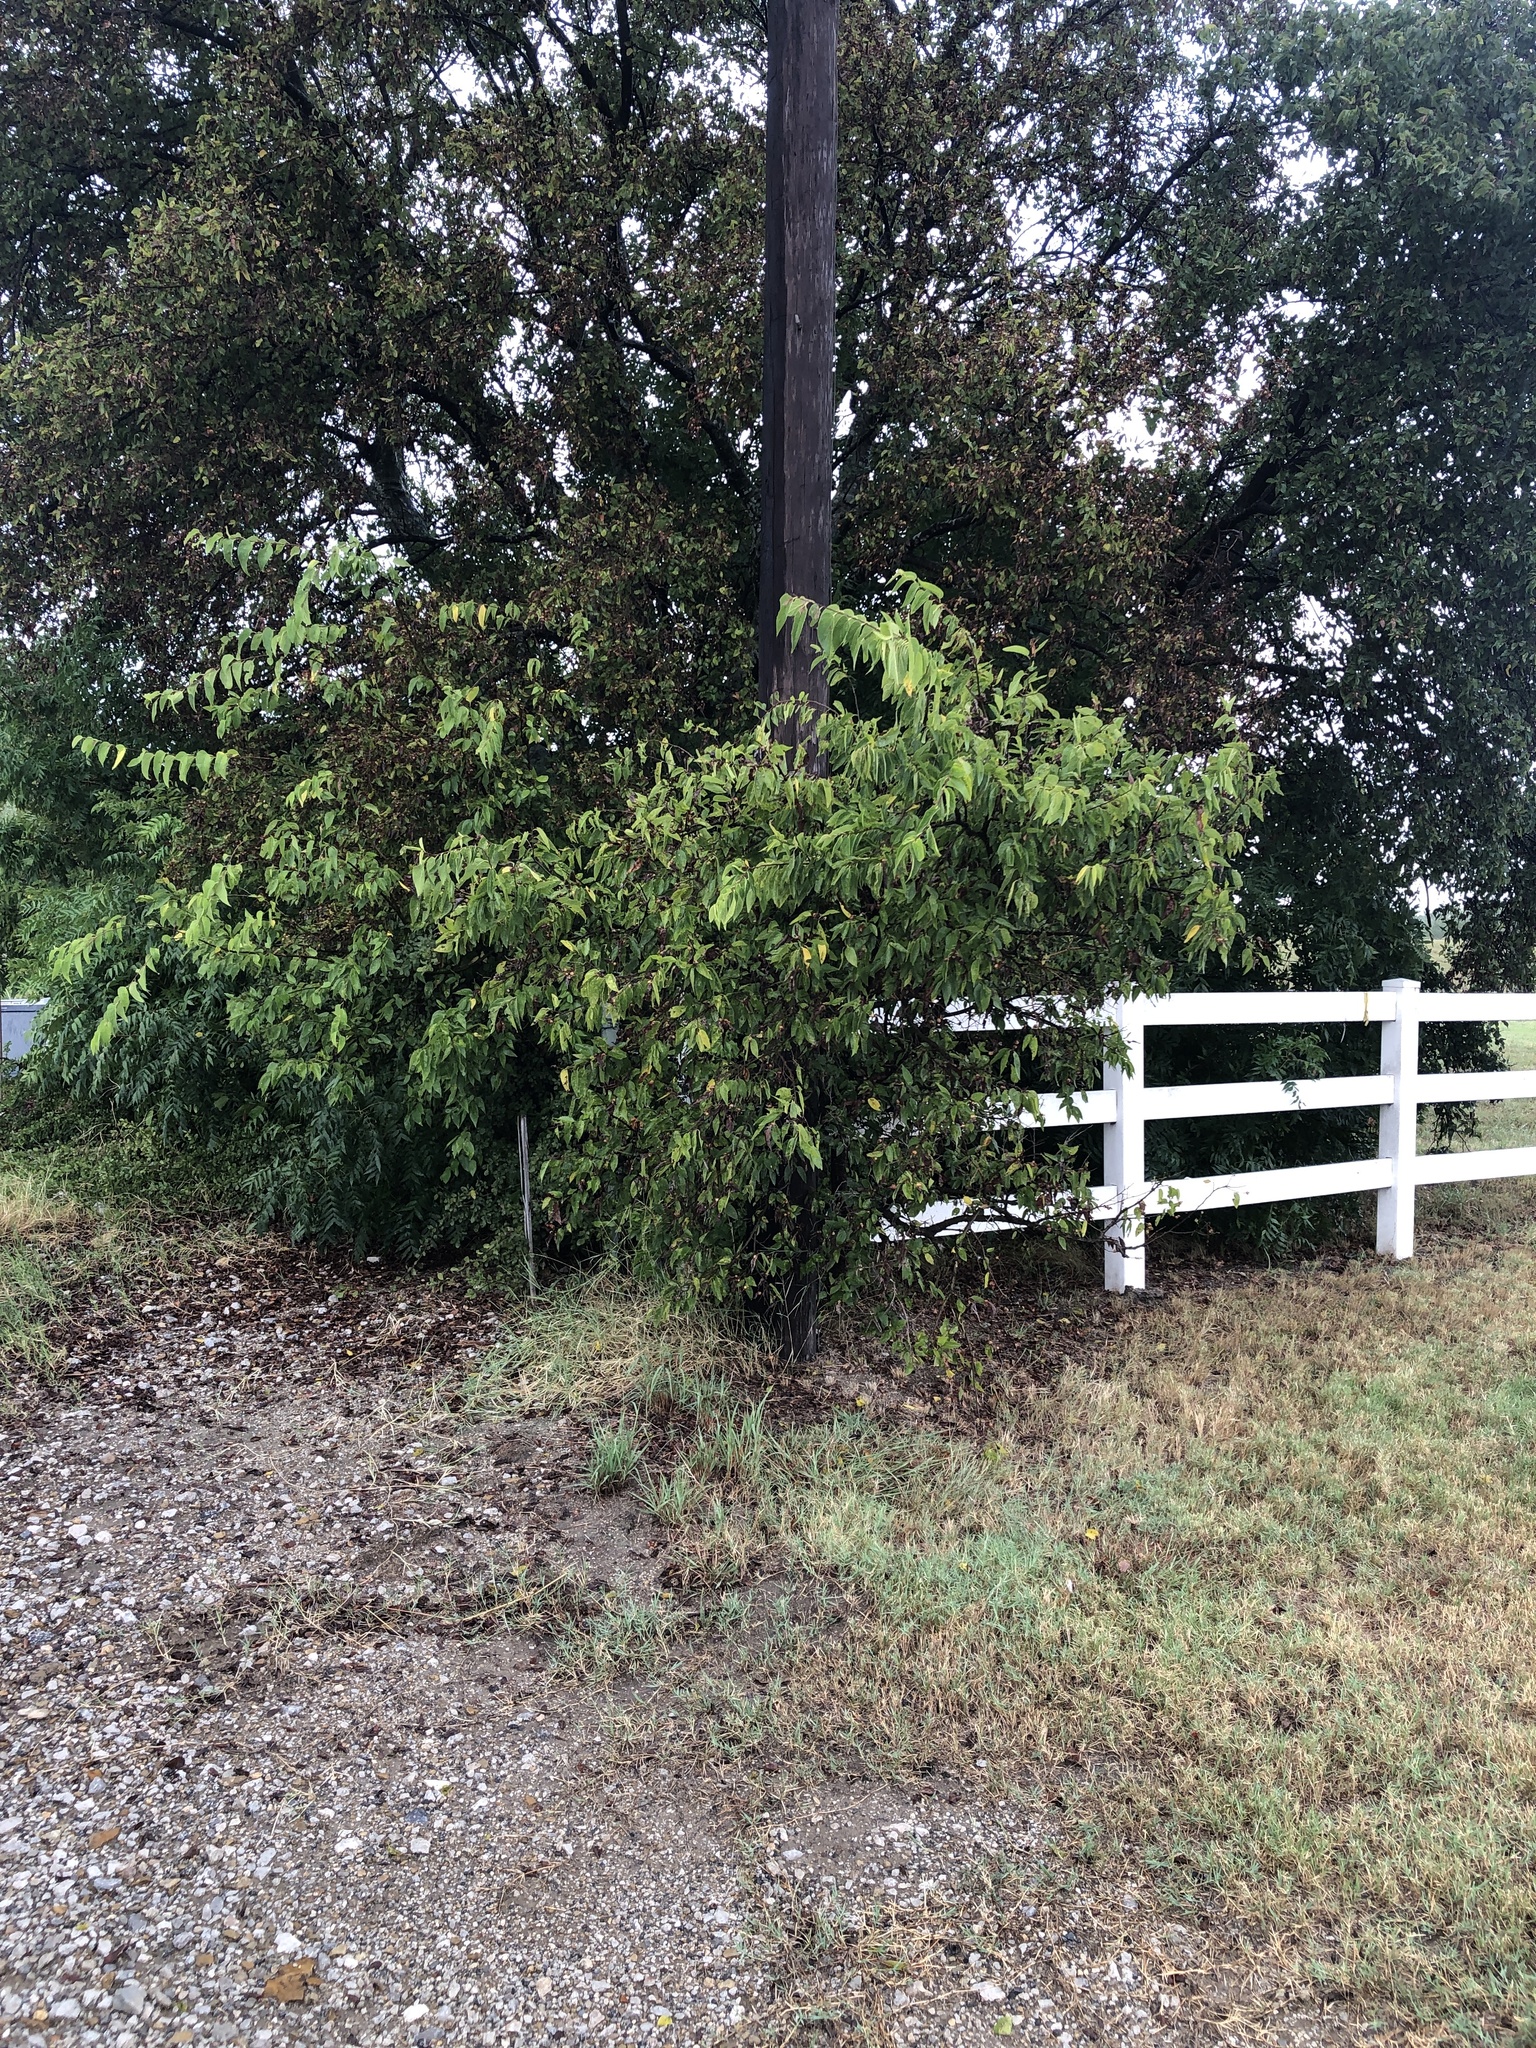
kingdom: Plantae
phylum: Tracheophyta
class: Magnoliopsida
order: Rosales
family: Cannabaceae
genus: Celtis
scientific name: Celtis laevigata
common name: Sugarberry
